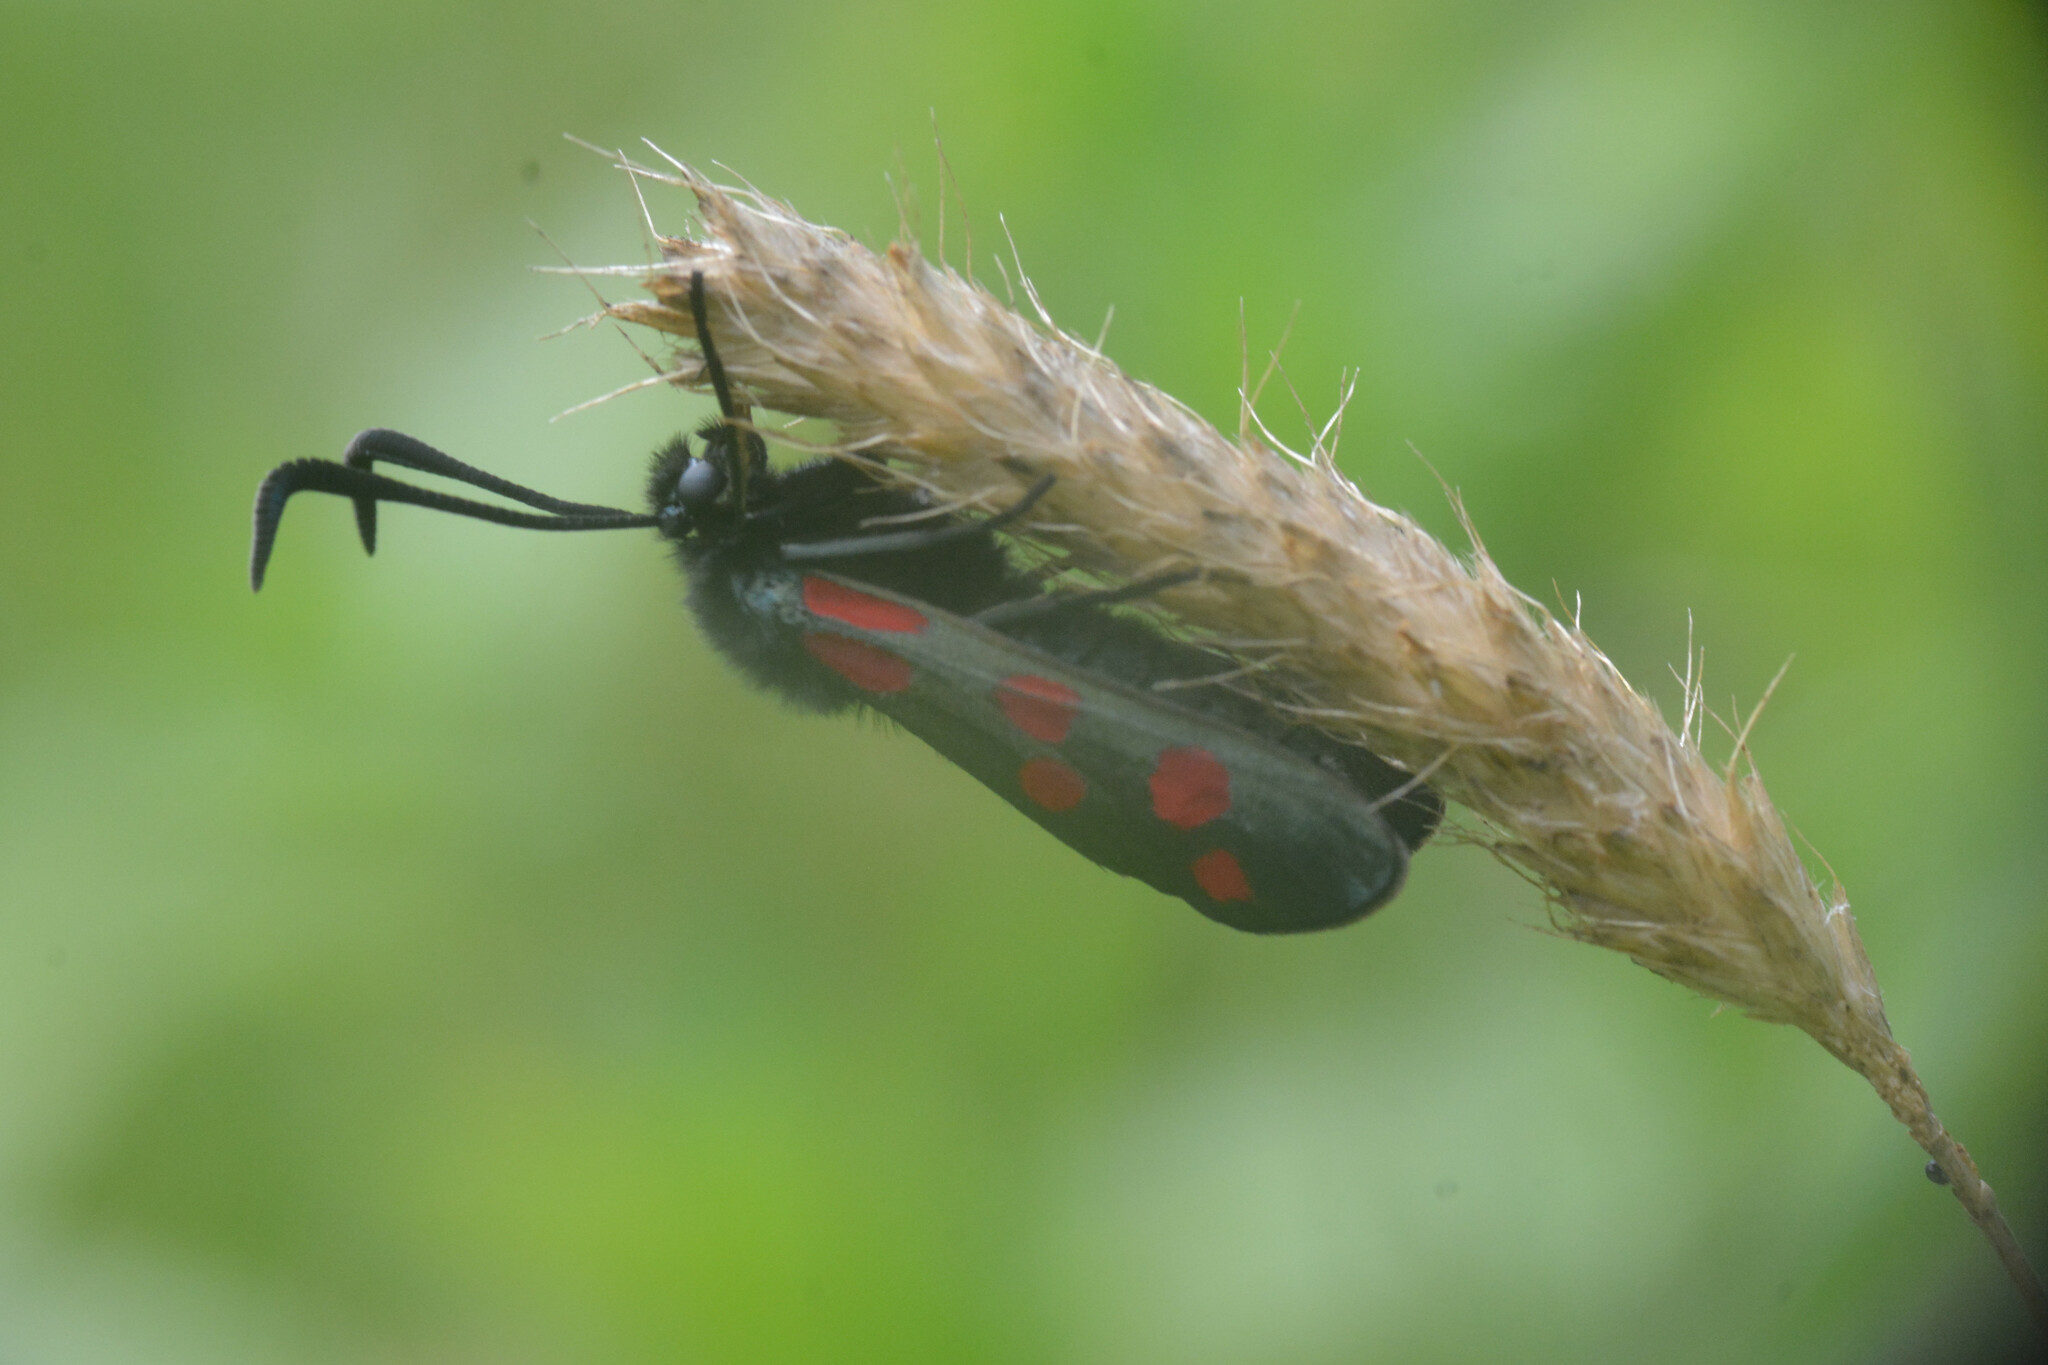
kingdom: Animalia
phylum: Arthropoda
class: Insecta
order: Lepidoptera
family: Zygaenidae
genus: Zygaena
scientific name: Zygaena filipendulae
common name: Six-spot burnet
